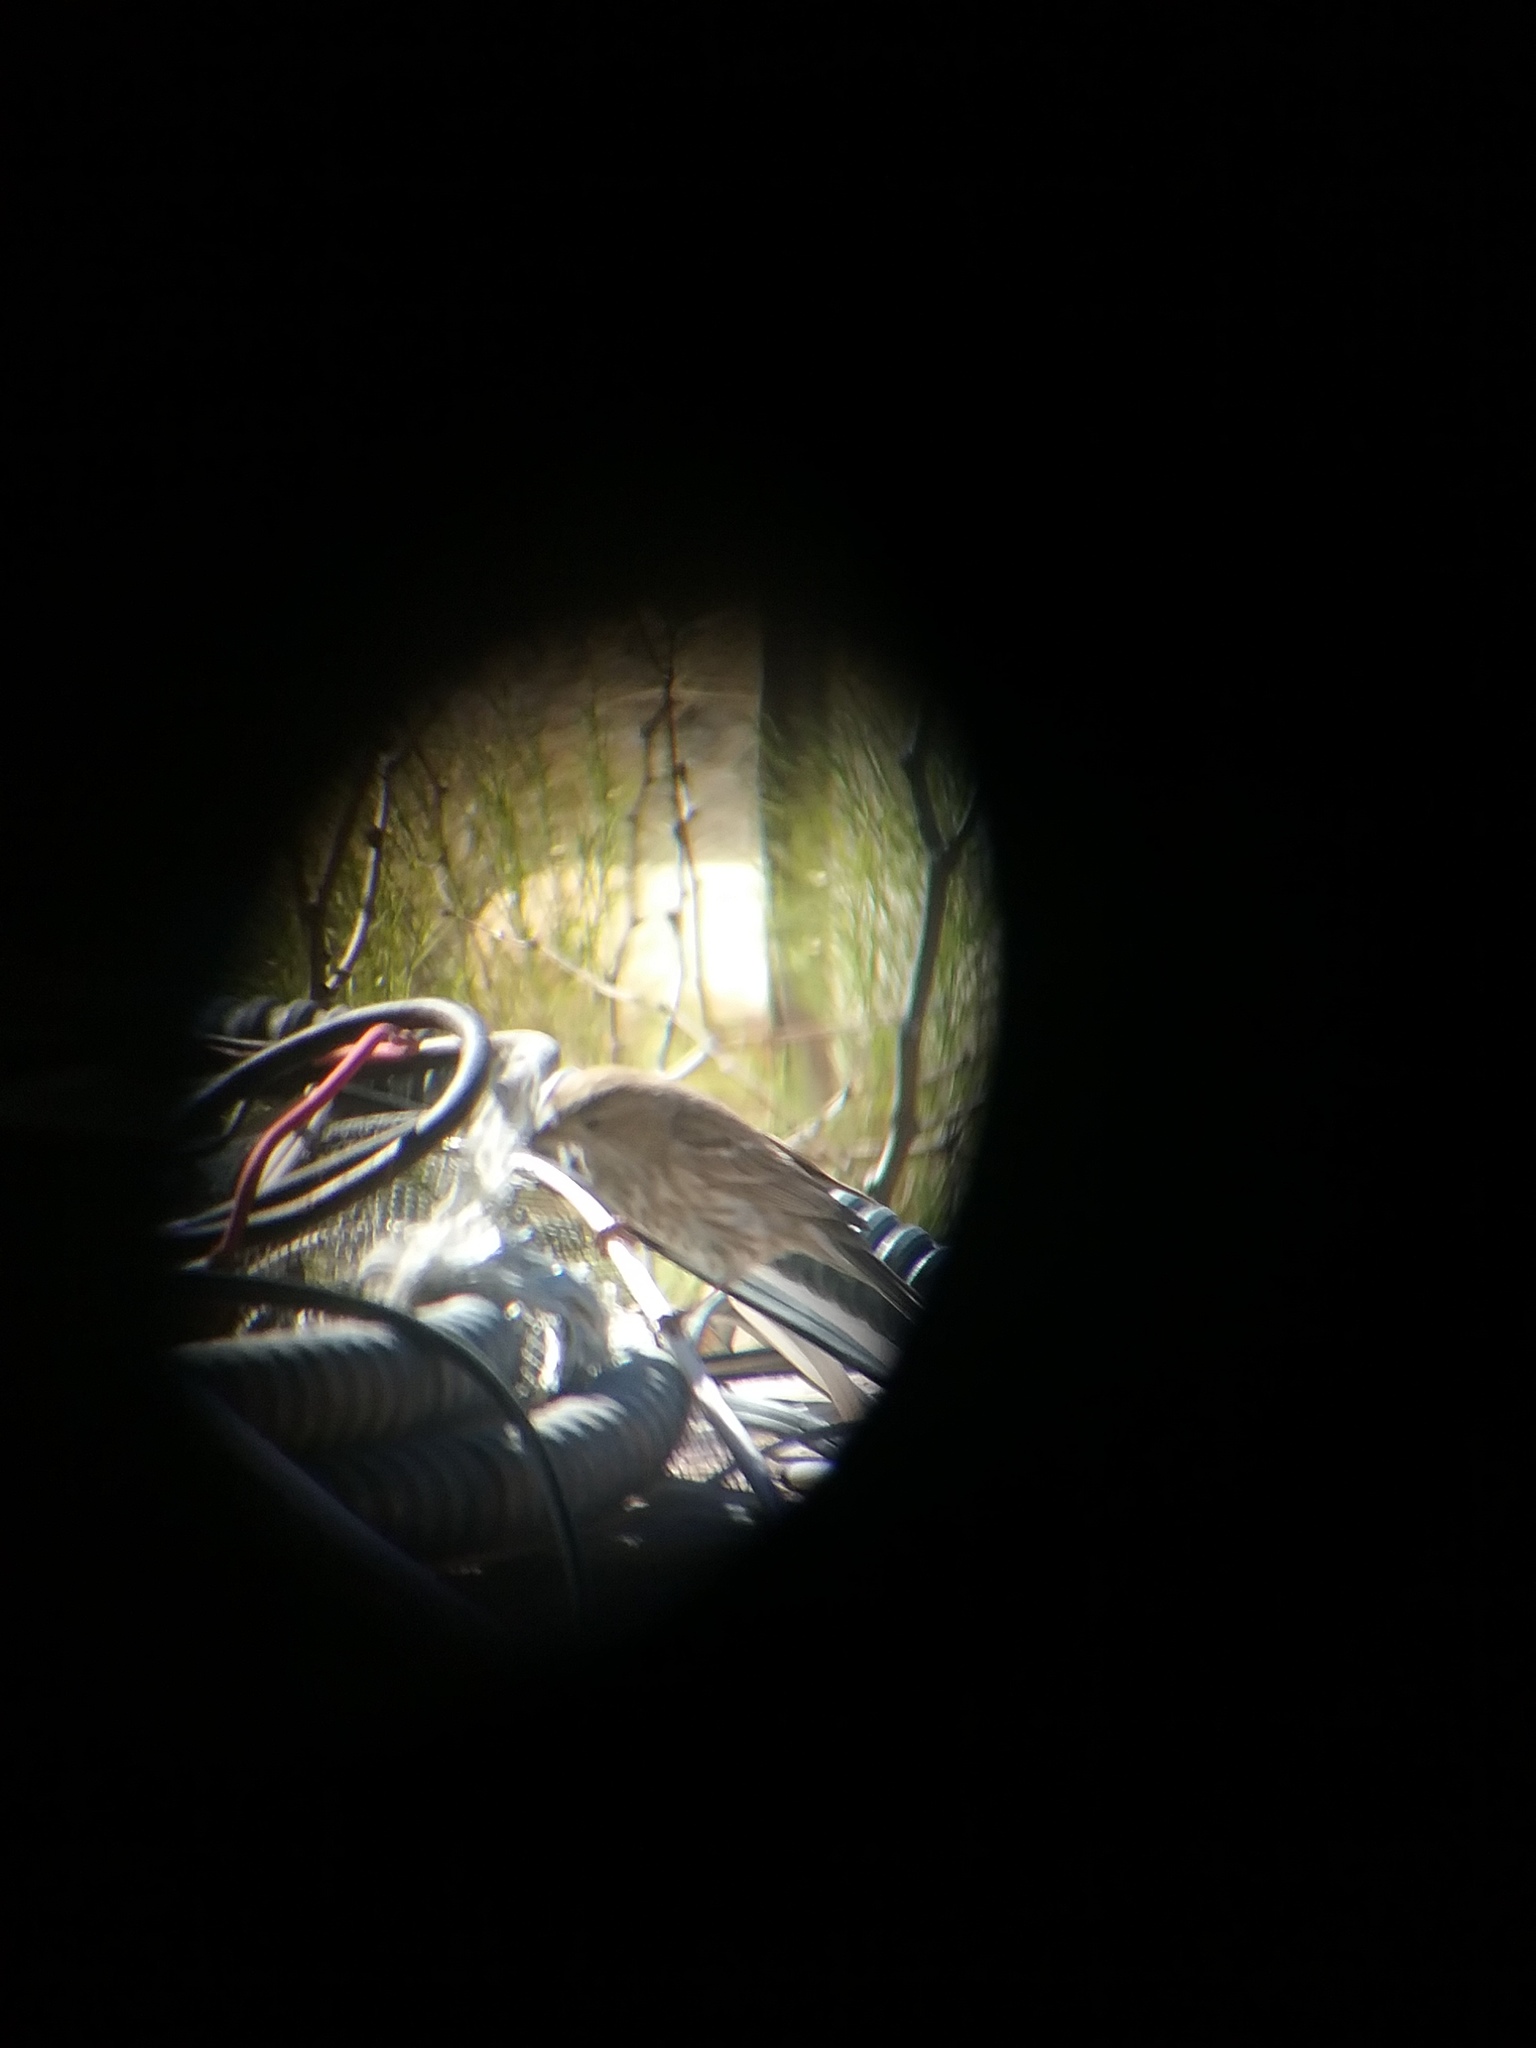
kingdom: Animalia
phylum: Chordata
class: Aves
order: Passeriformes
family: Fringillidae
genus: Haemorhous
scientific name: Haemorhous mexicanus
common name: House finch
